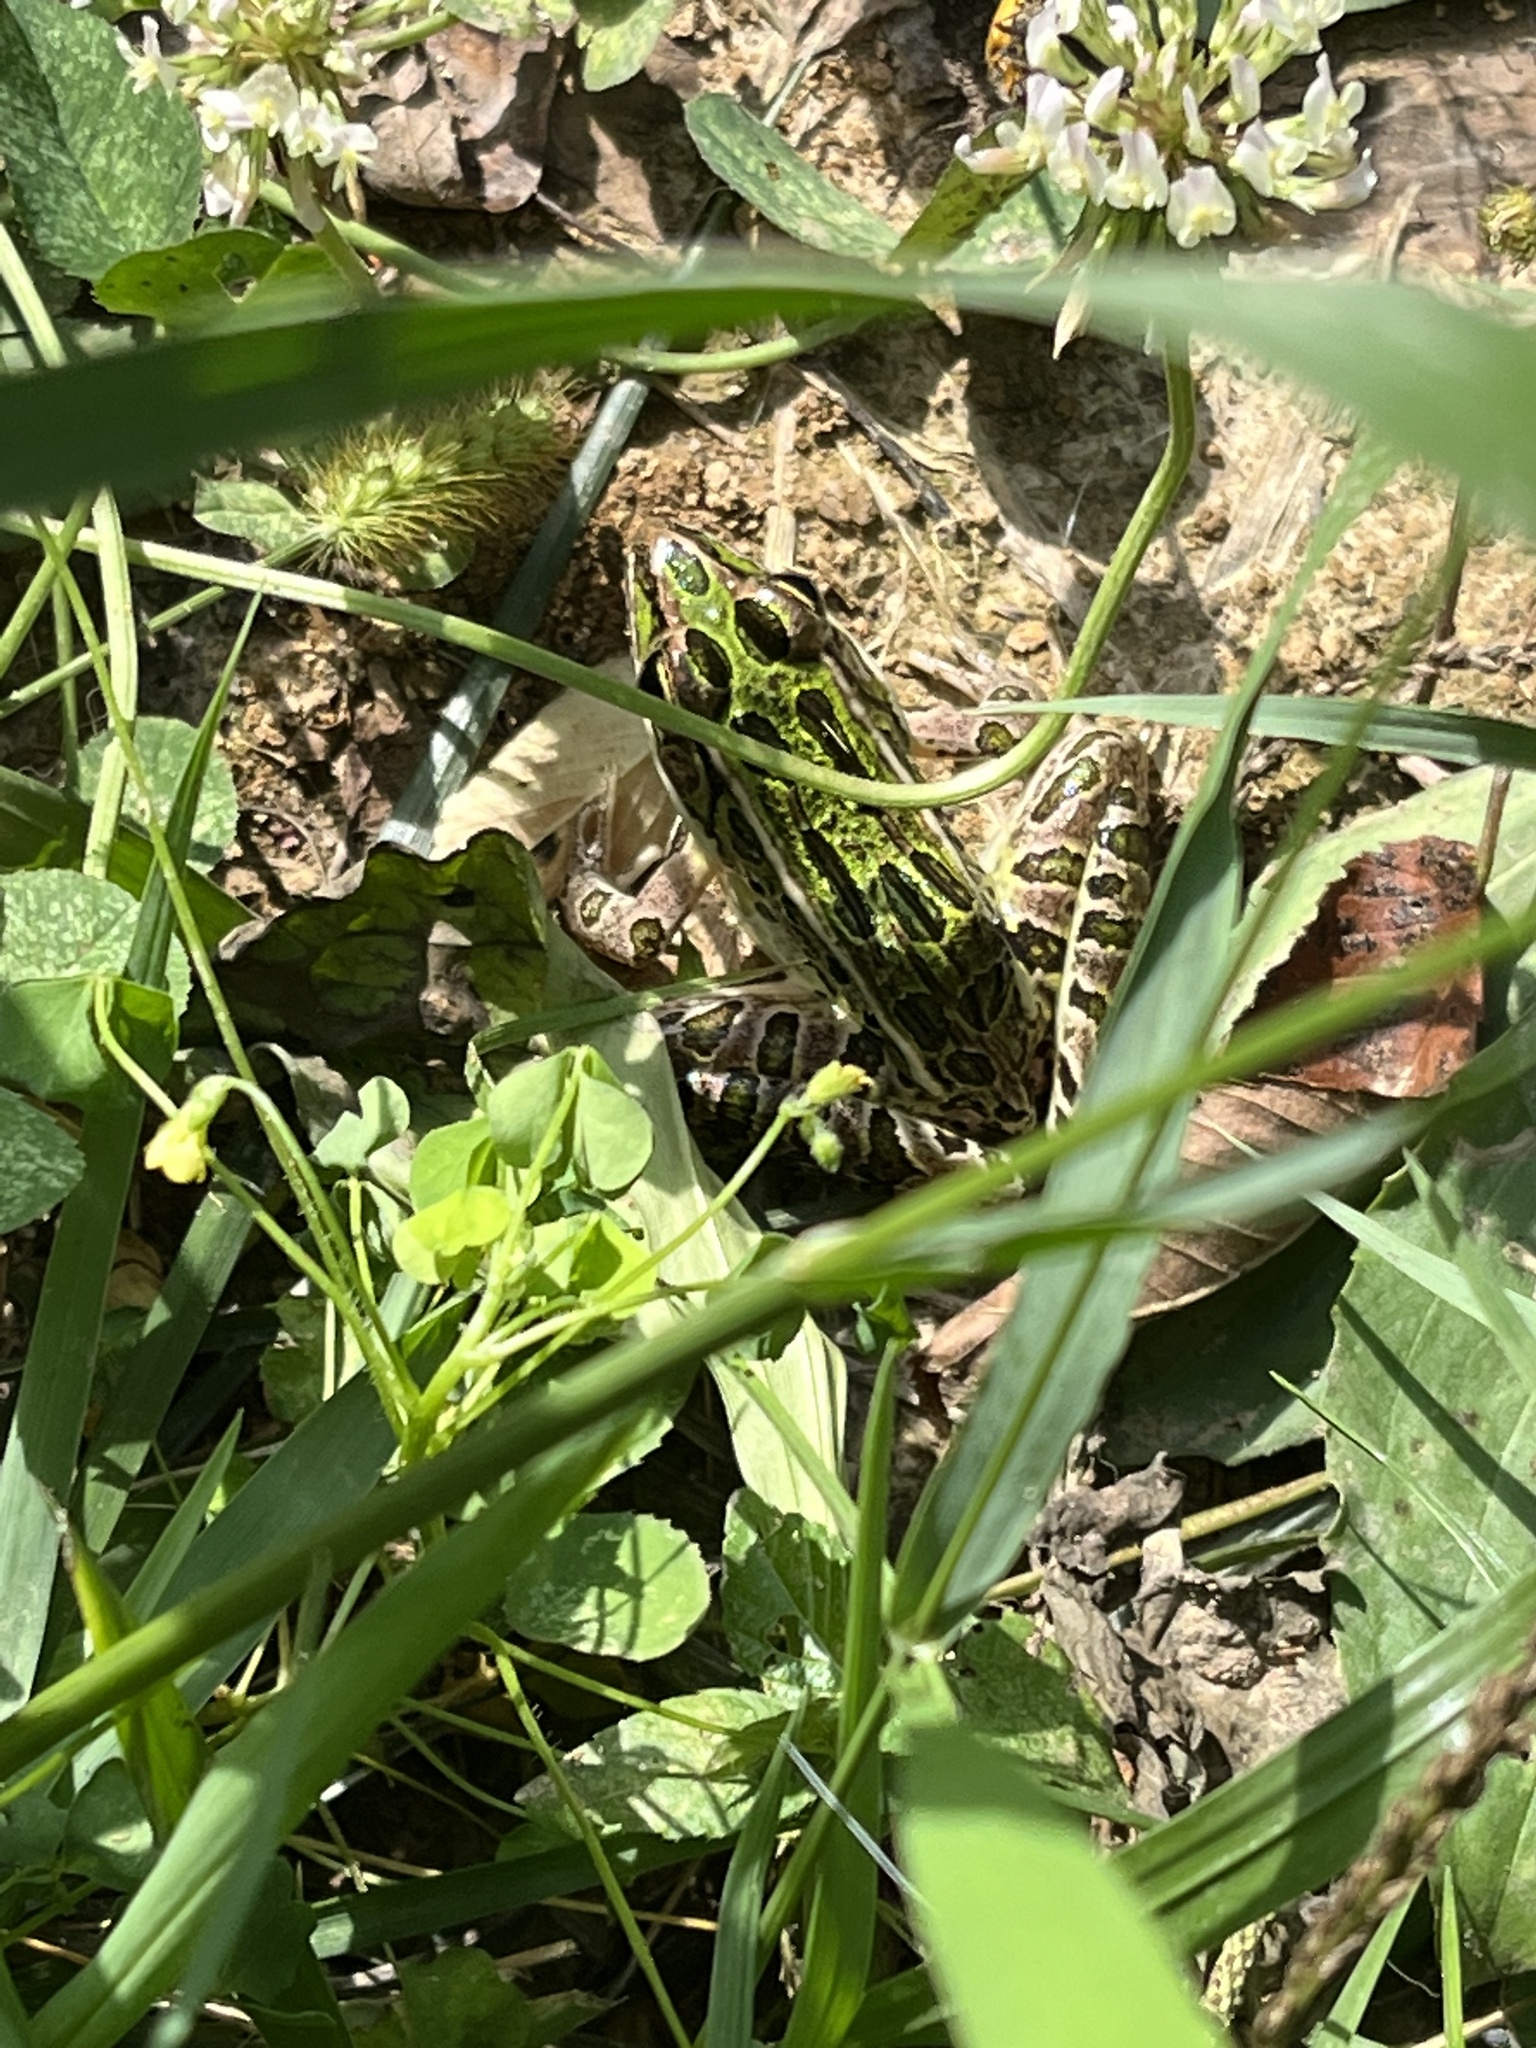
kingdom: Animalia
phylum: Chordata
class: Amphibia
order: Anura
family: Ranidae
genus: Lithobates
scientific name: Lithobates pipiens
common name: Northern leopard frog
